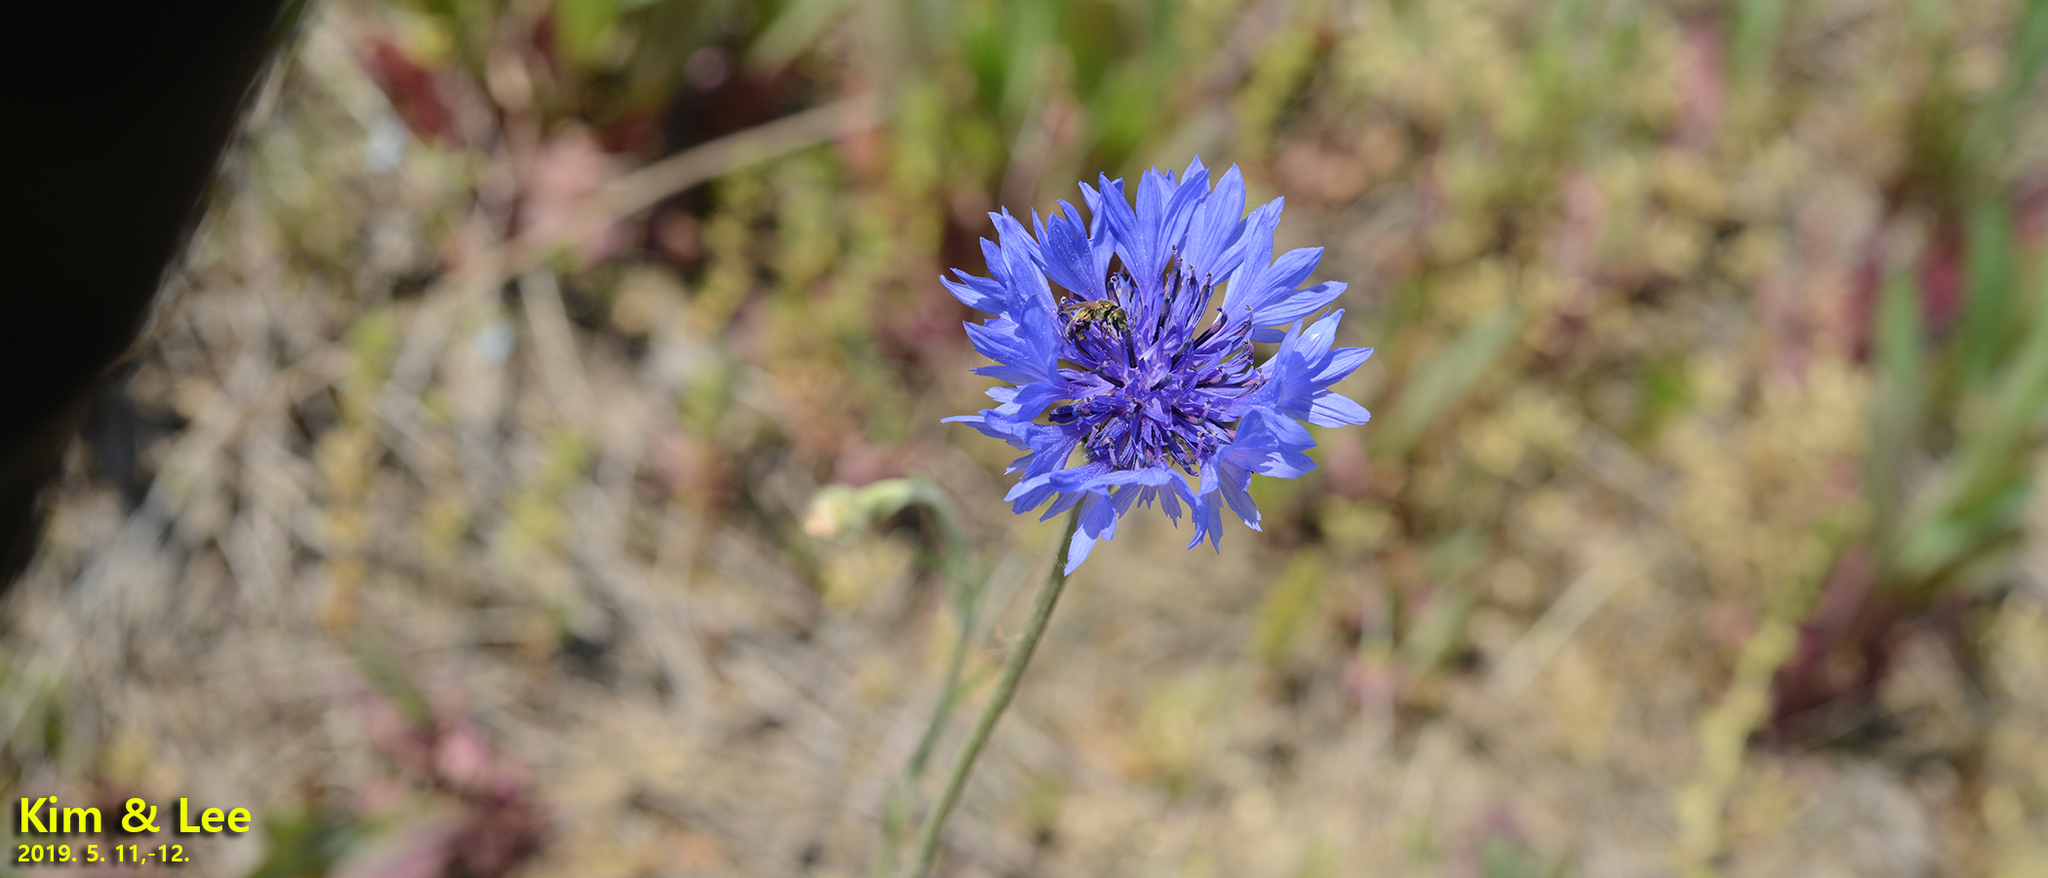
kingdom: Plantae
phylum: Tracheophyta
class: Magnoliopsida
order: Asterales
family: Asteraceae
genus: Centaurea
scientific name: Centaurea cyanus
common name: Cornflower
